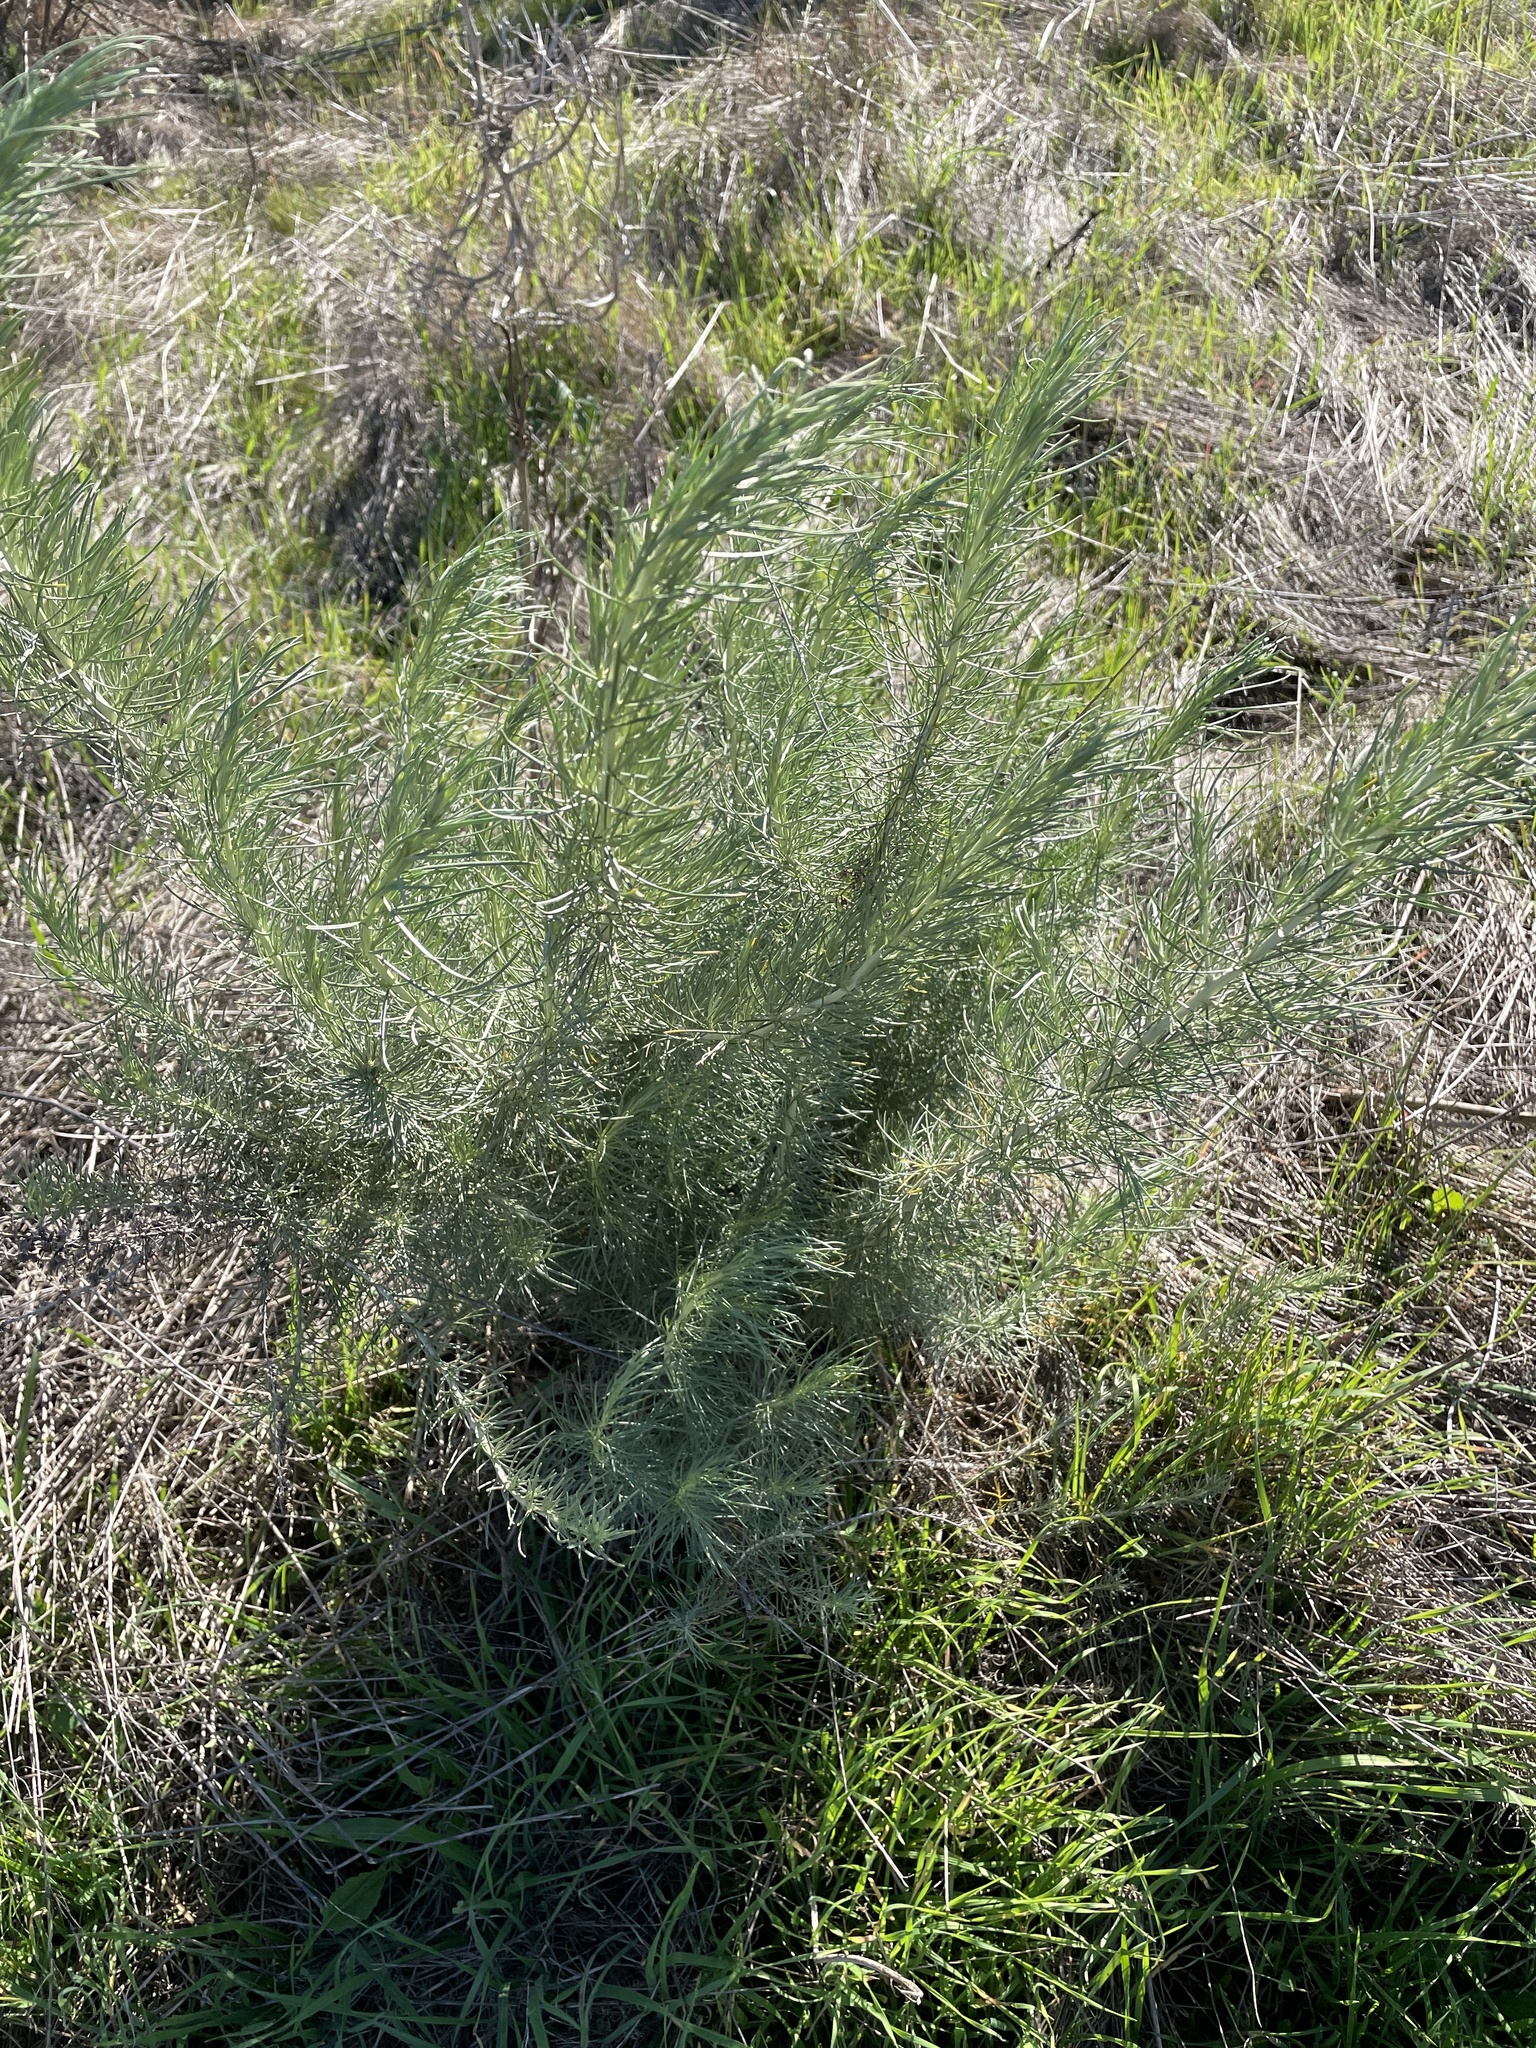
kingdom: Plantae
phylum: Tracheophyta
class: Magnoliopsida
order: Asterales
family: Asteraceae
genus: Artemisia
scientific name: Artemisia californica
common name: California sagebrush
